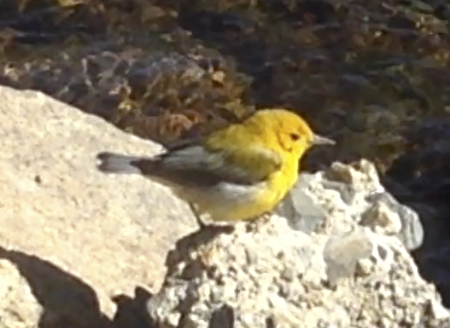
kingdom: Animalia
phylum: Chordata
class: Aves
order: Passeriformes
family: Parulidae
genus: Protonotaria
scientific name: Protonotaria citrea
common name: Prothonotary warbler
